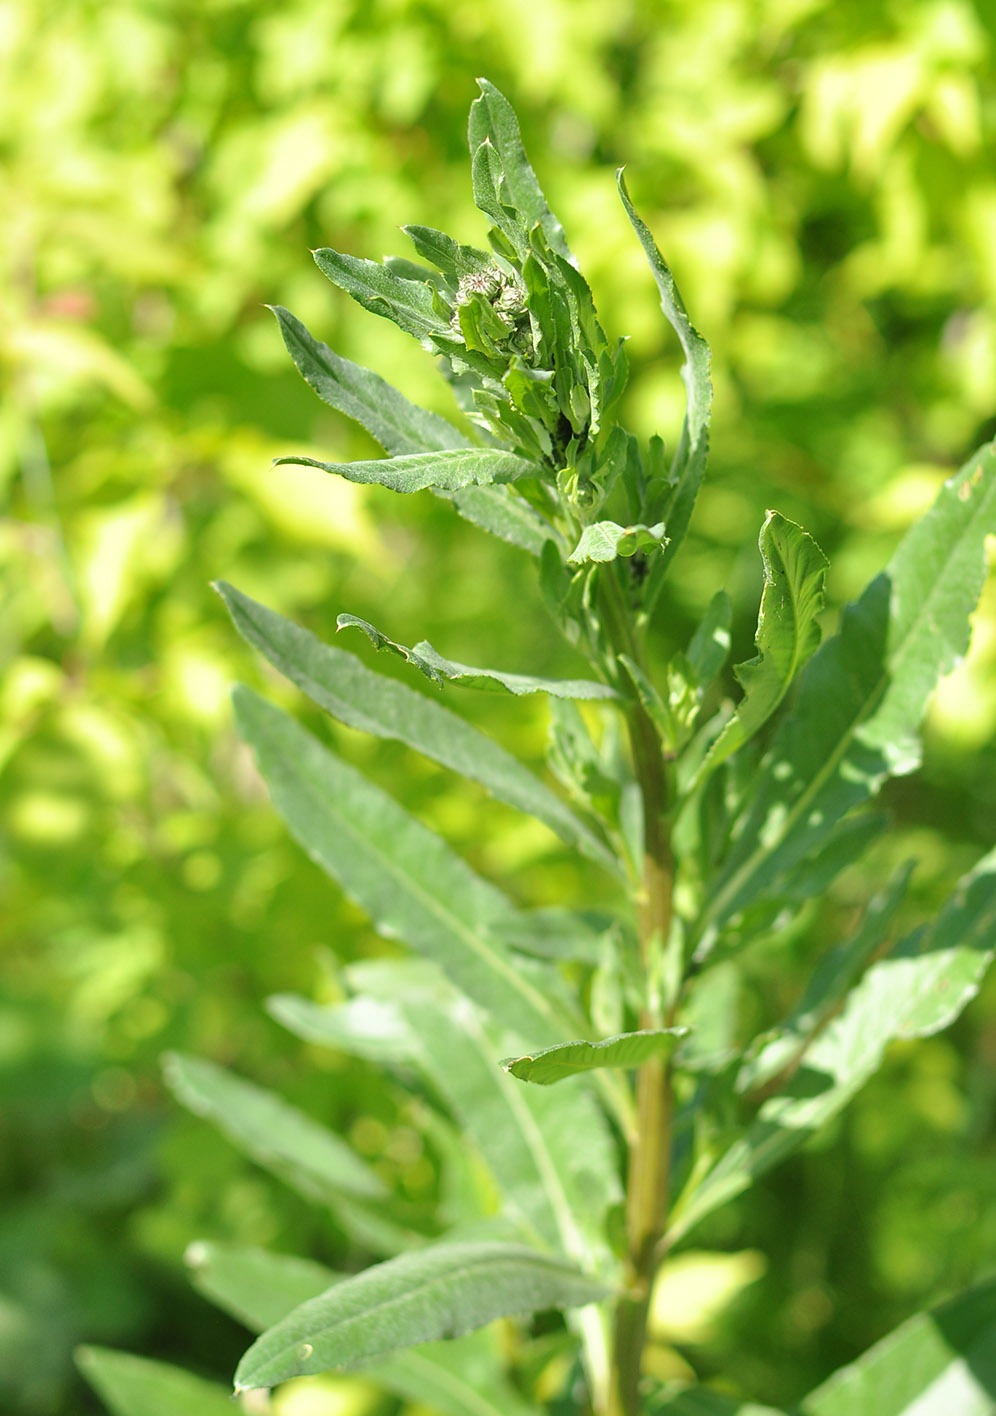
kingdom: Plantae
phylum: Tracheophyta
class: Magnoliopsida
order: Asterales
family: Asteraceae
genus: Cirsium
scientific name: Cirsium arvense
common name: Creeping thistle
